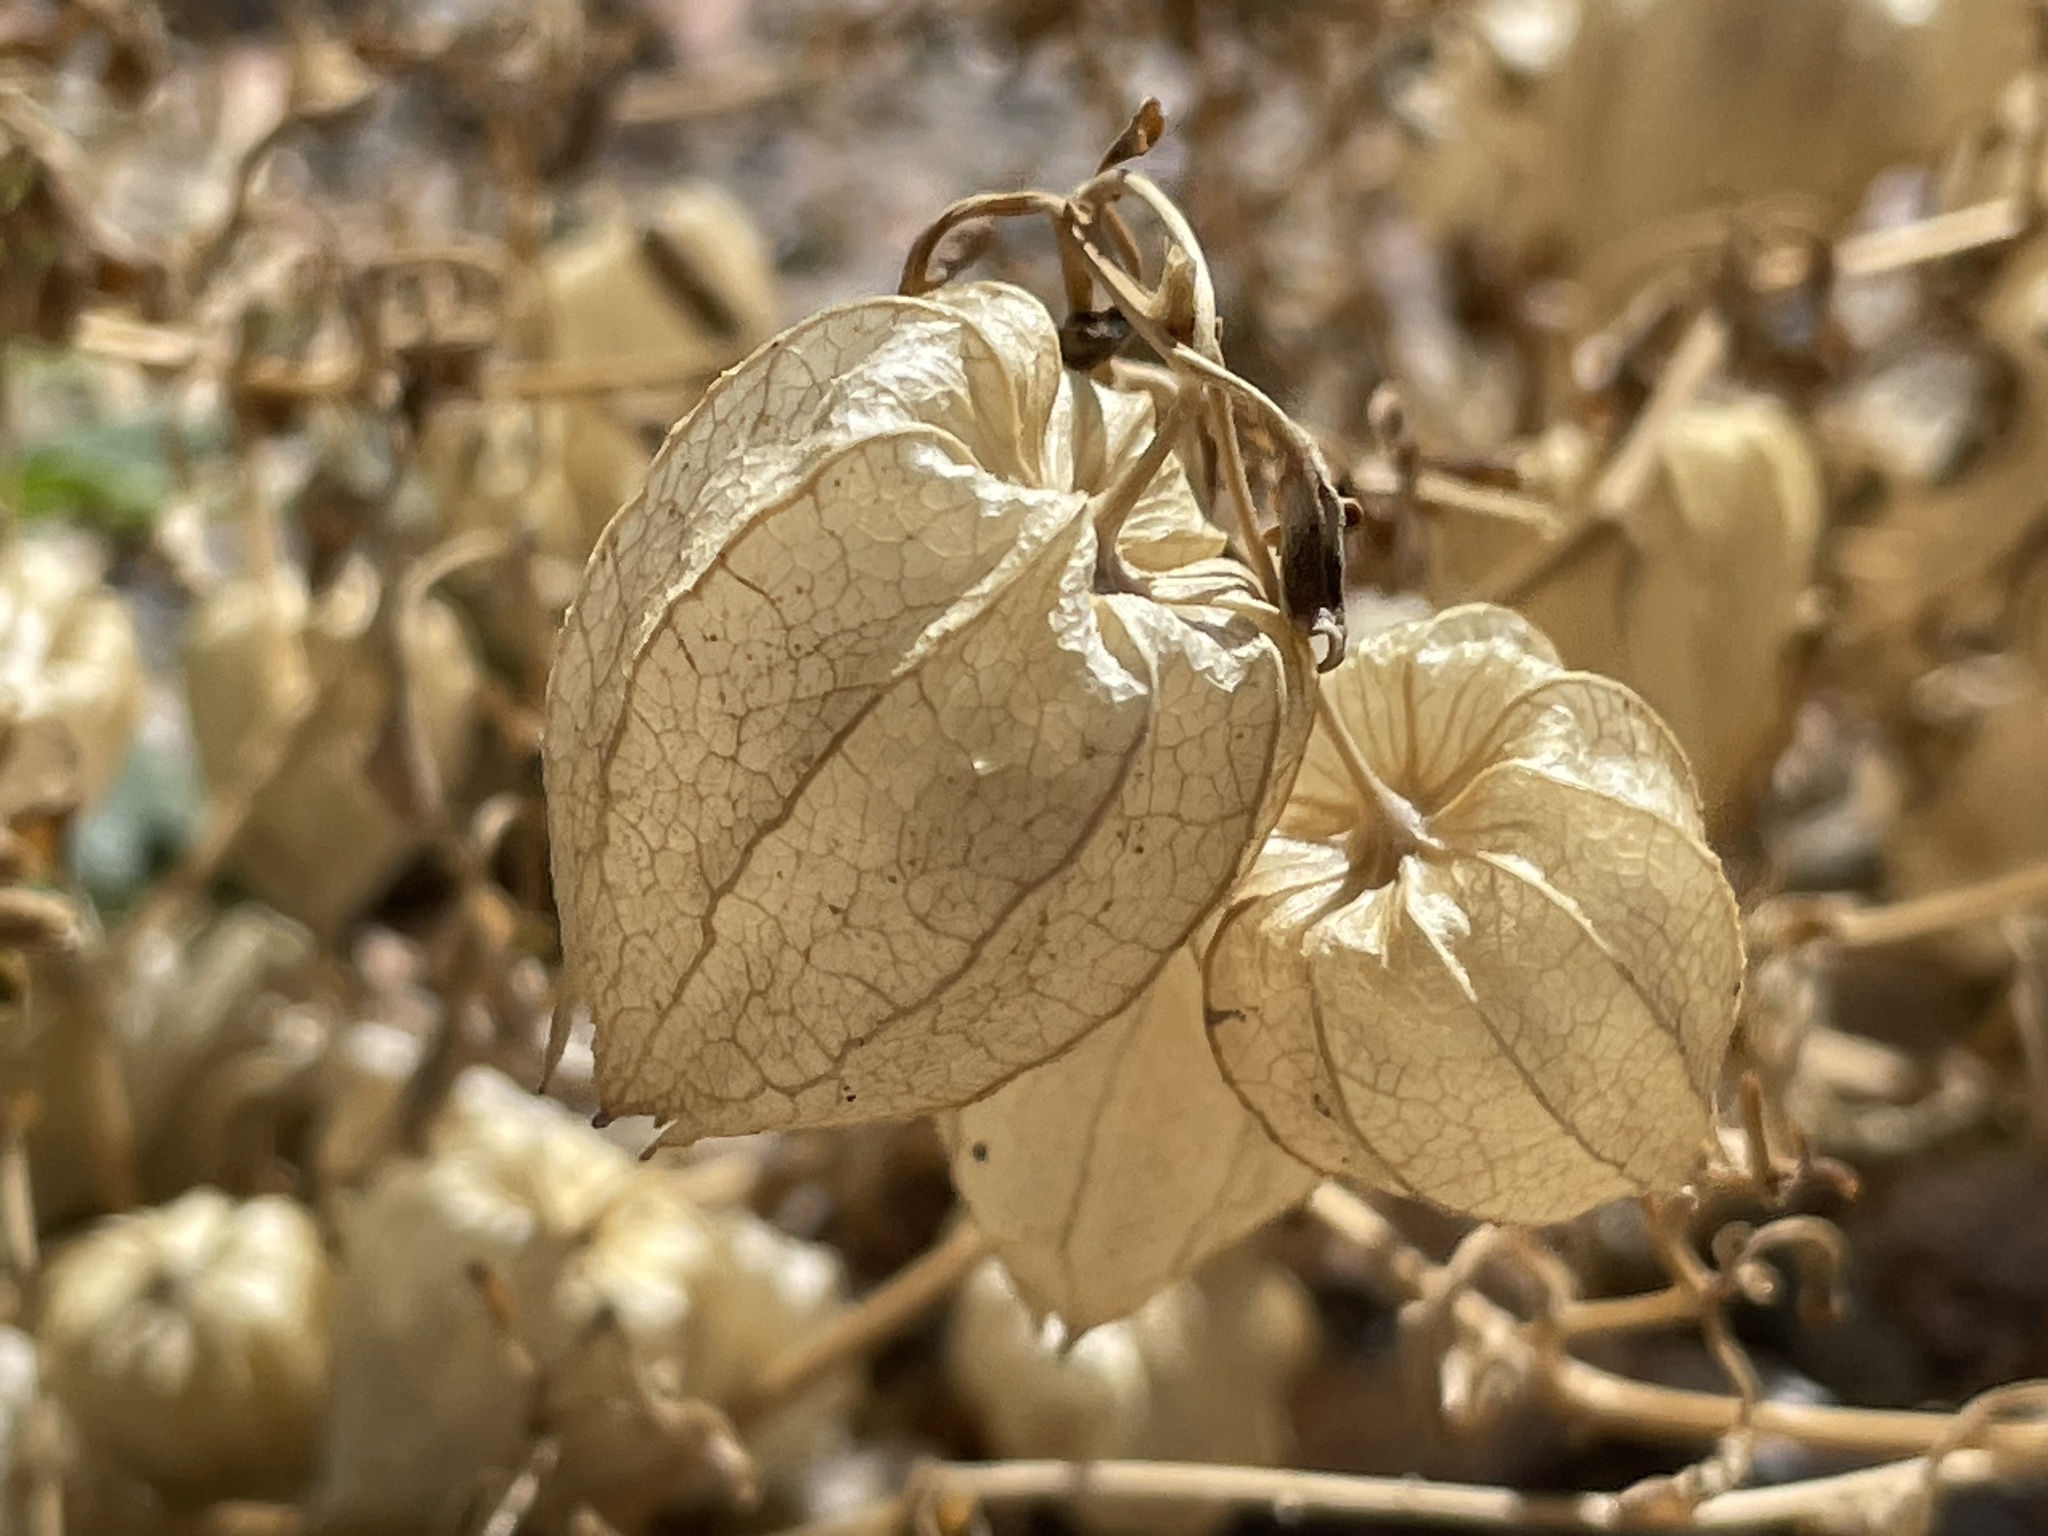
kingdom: Plantae
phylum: Tracheophyta
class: Magnoliopsida
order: Solanales
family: Solanaceae
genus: Physalis
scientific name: Physalis crassifolia
